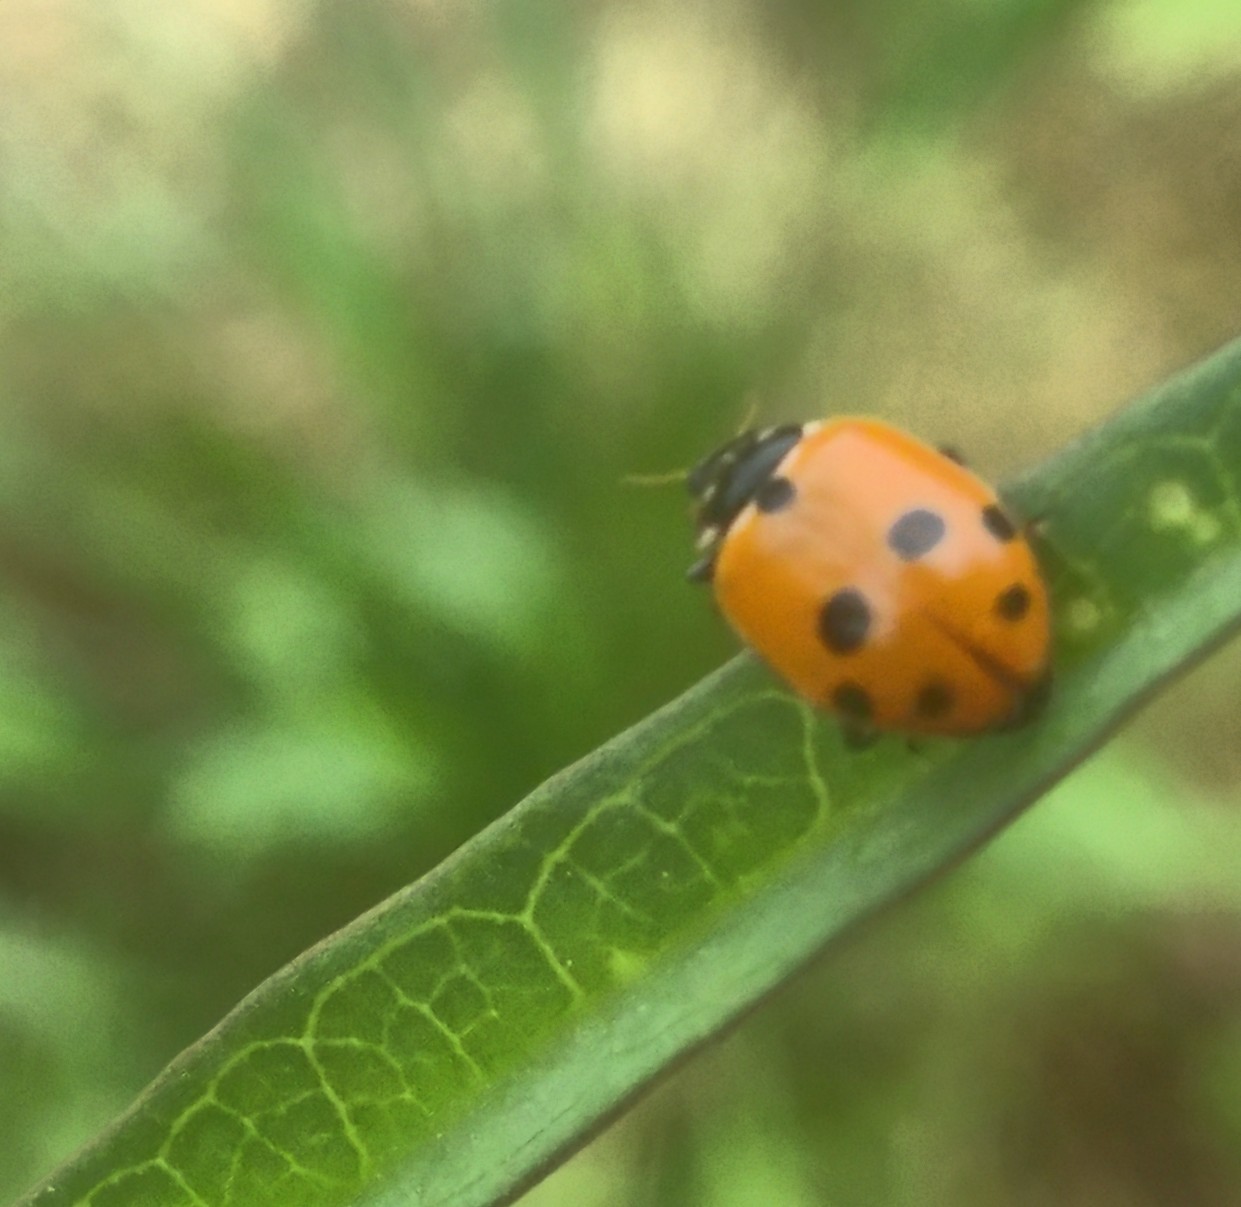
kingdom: Animalia
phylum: Arthropoda
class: Insecta
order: Coleoptera
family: Coccinellidae
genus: Hippodamia
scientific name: Hippodamia variegata
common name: Ladybird beetle
